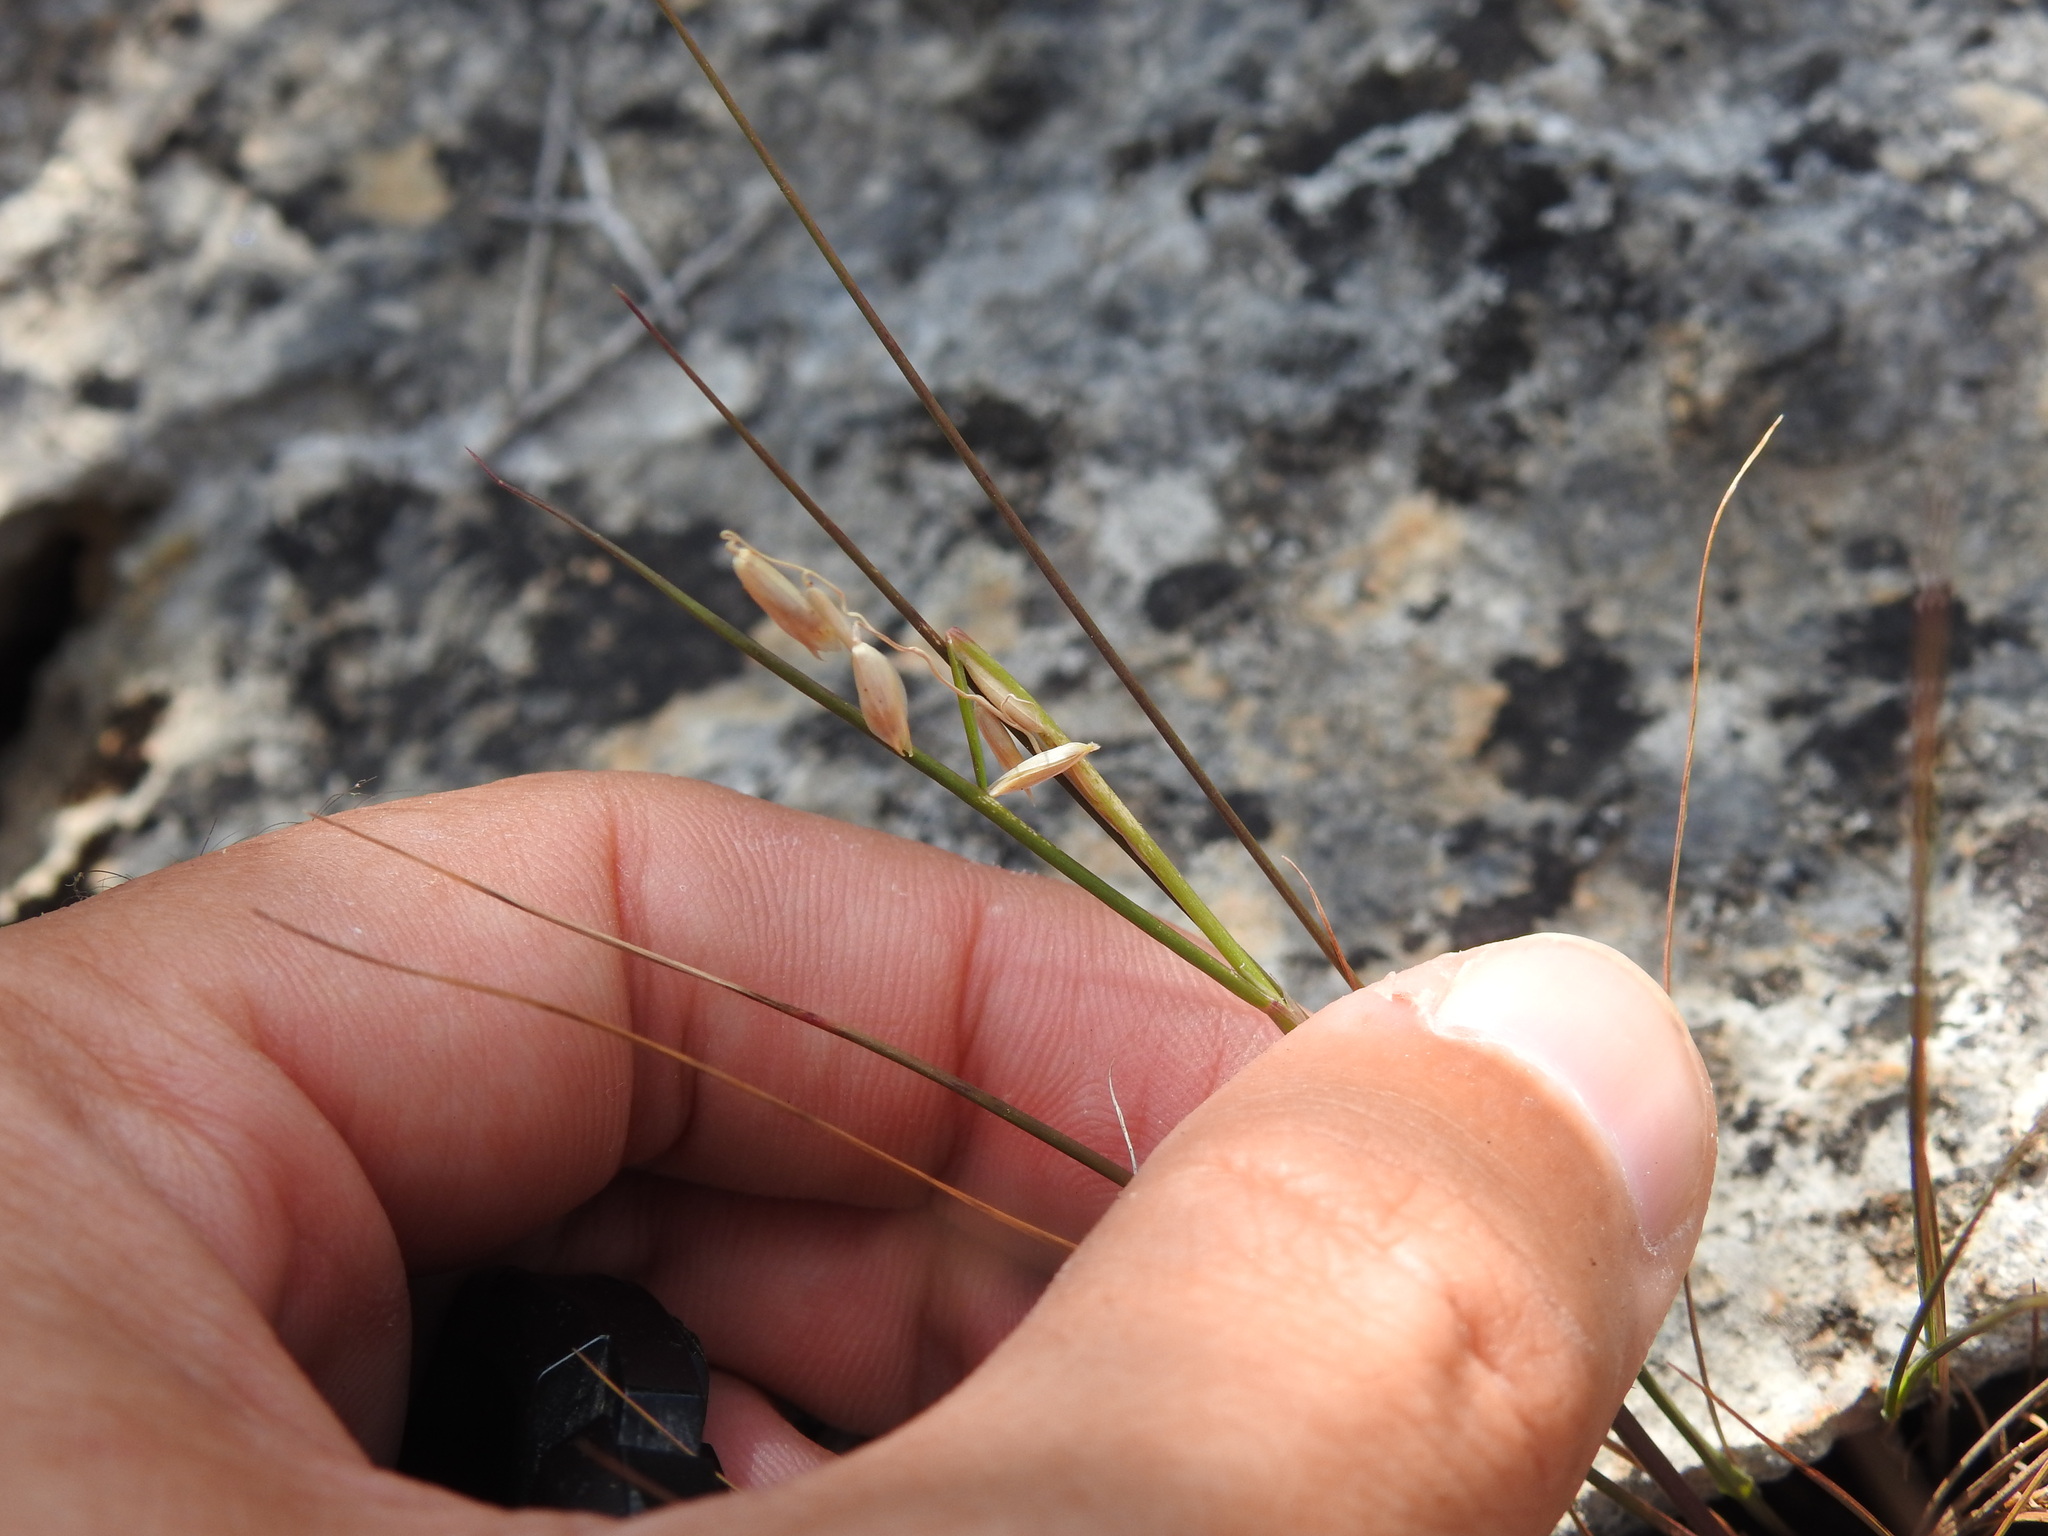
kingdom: Plantae
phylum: Tracheophyta
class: Liliopsida
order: Poales
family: Poaceae
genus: Melica
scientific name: Melica minuta
